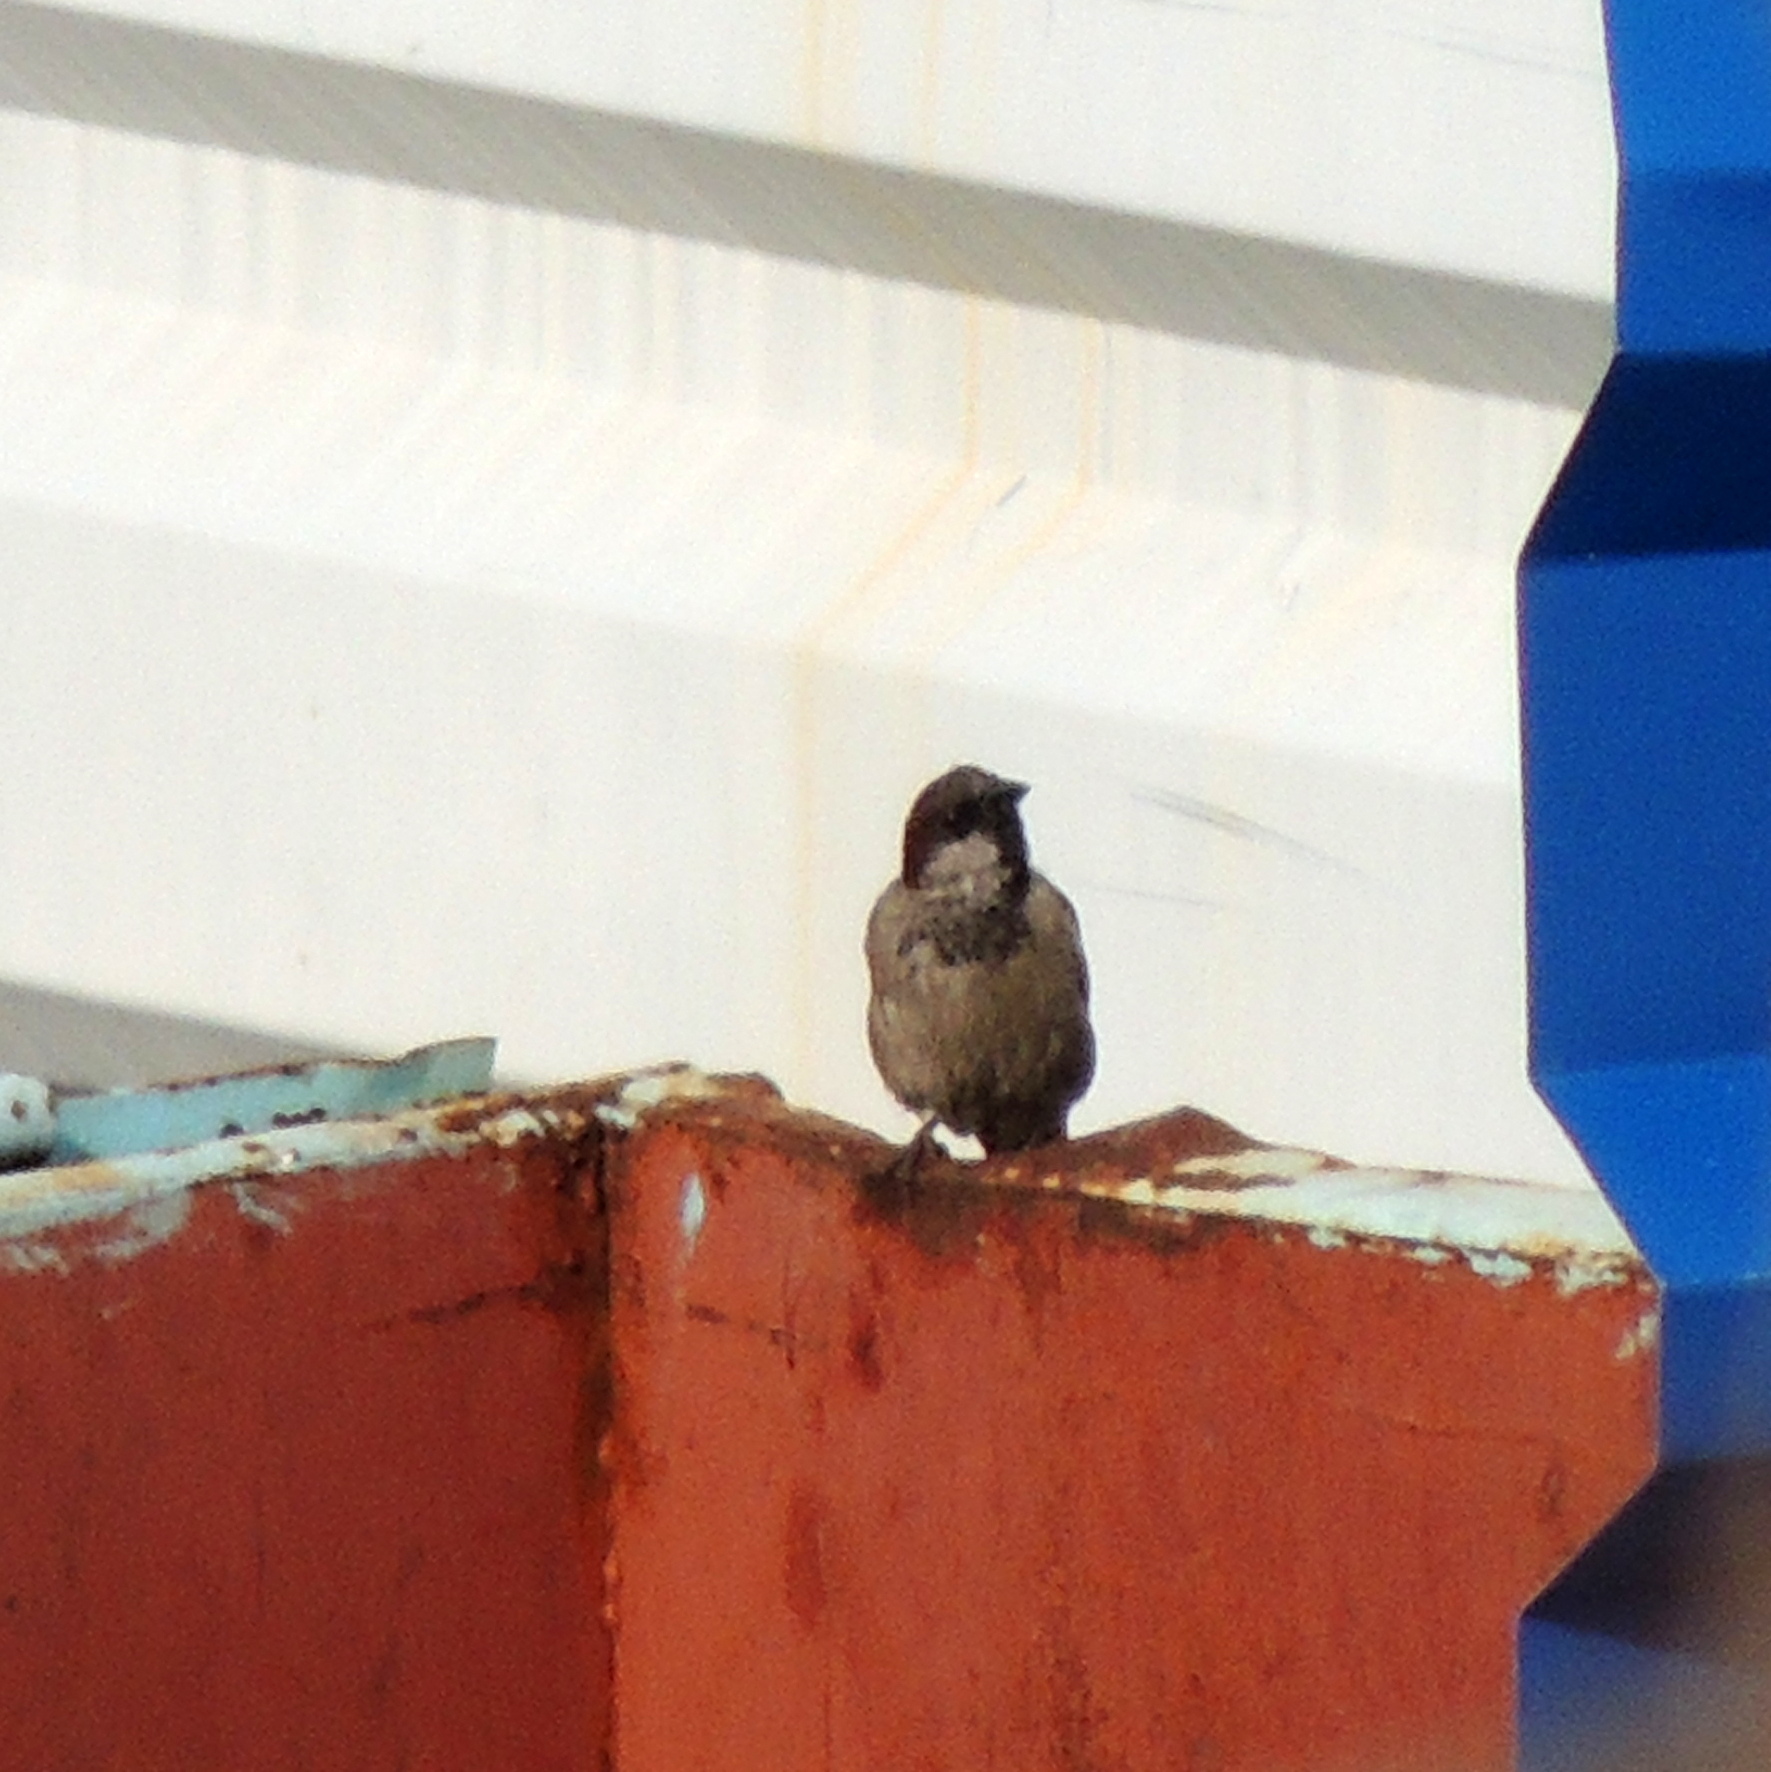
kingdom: Animalia
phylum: Chordata
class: Aves
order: Passeriformes
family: Passeridae
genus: Passer
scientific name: Passer domesticus
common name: House sparrow
